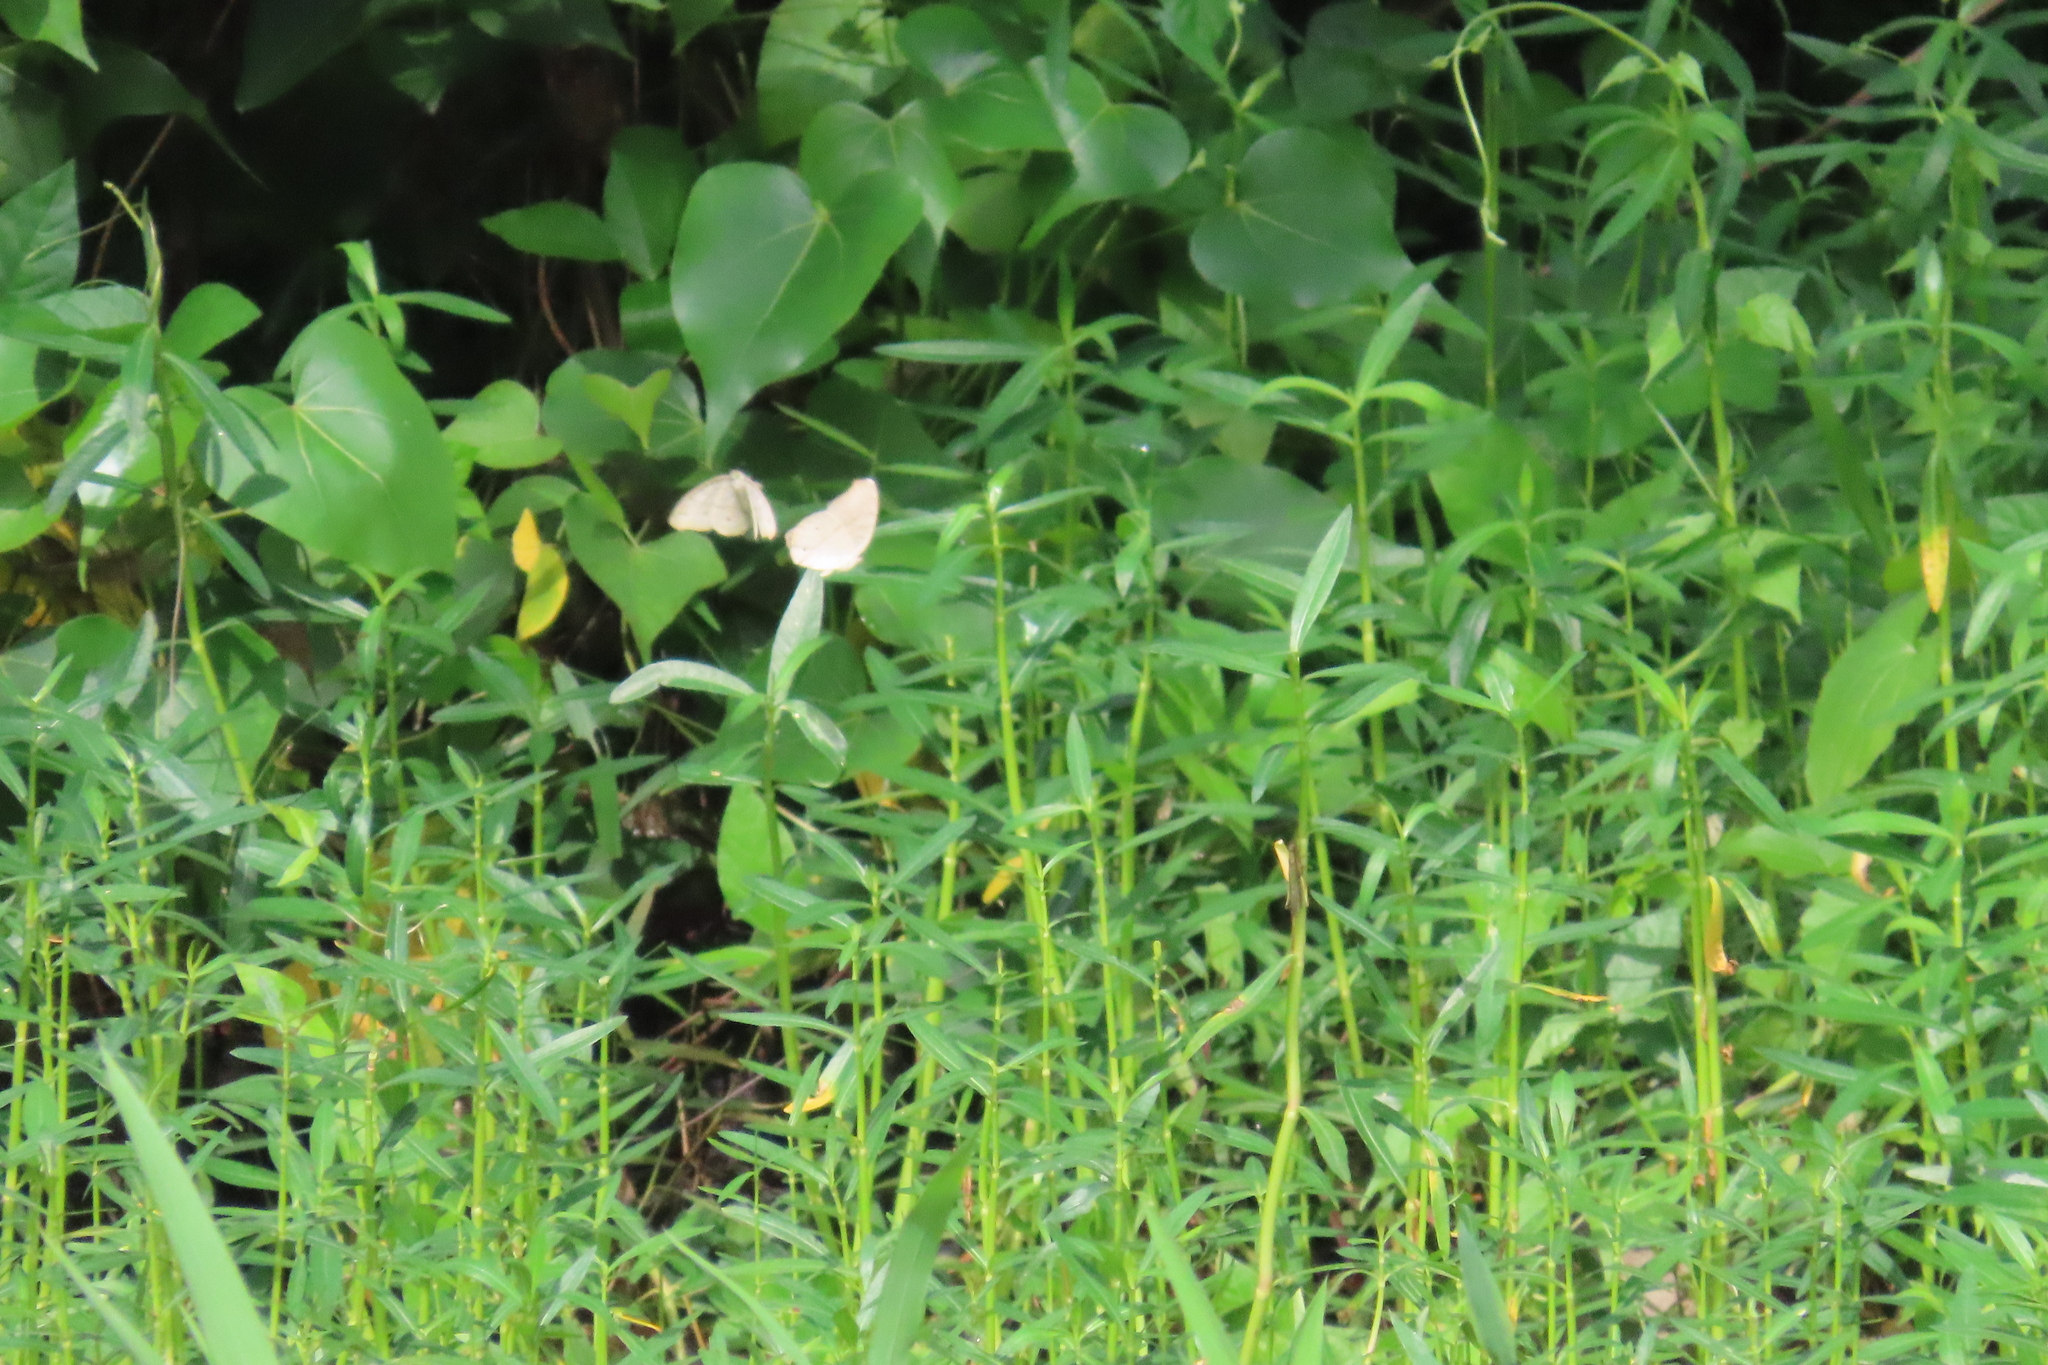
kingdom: Animalia
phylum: Arthropoda
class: Insecta
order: Lepidoptera
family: Nymphalidae
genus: Junonia
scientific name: Junonia atlites
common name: Grey pansy
